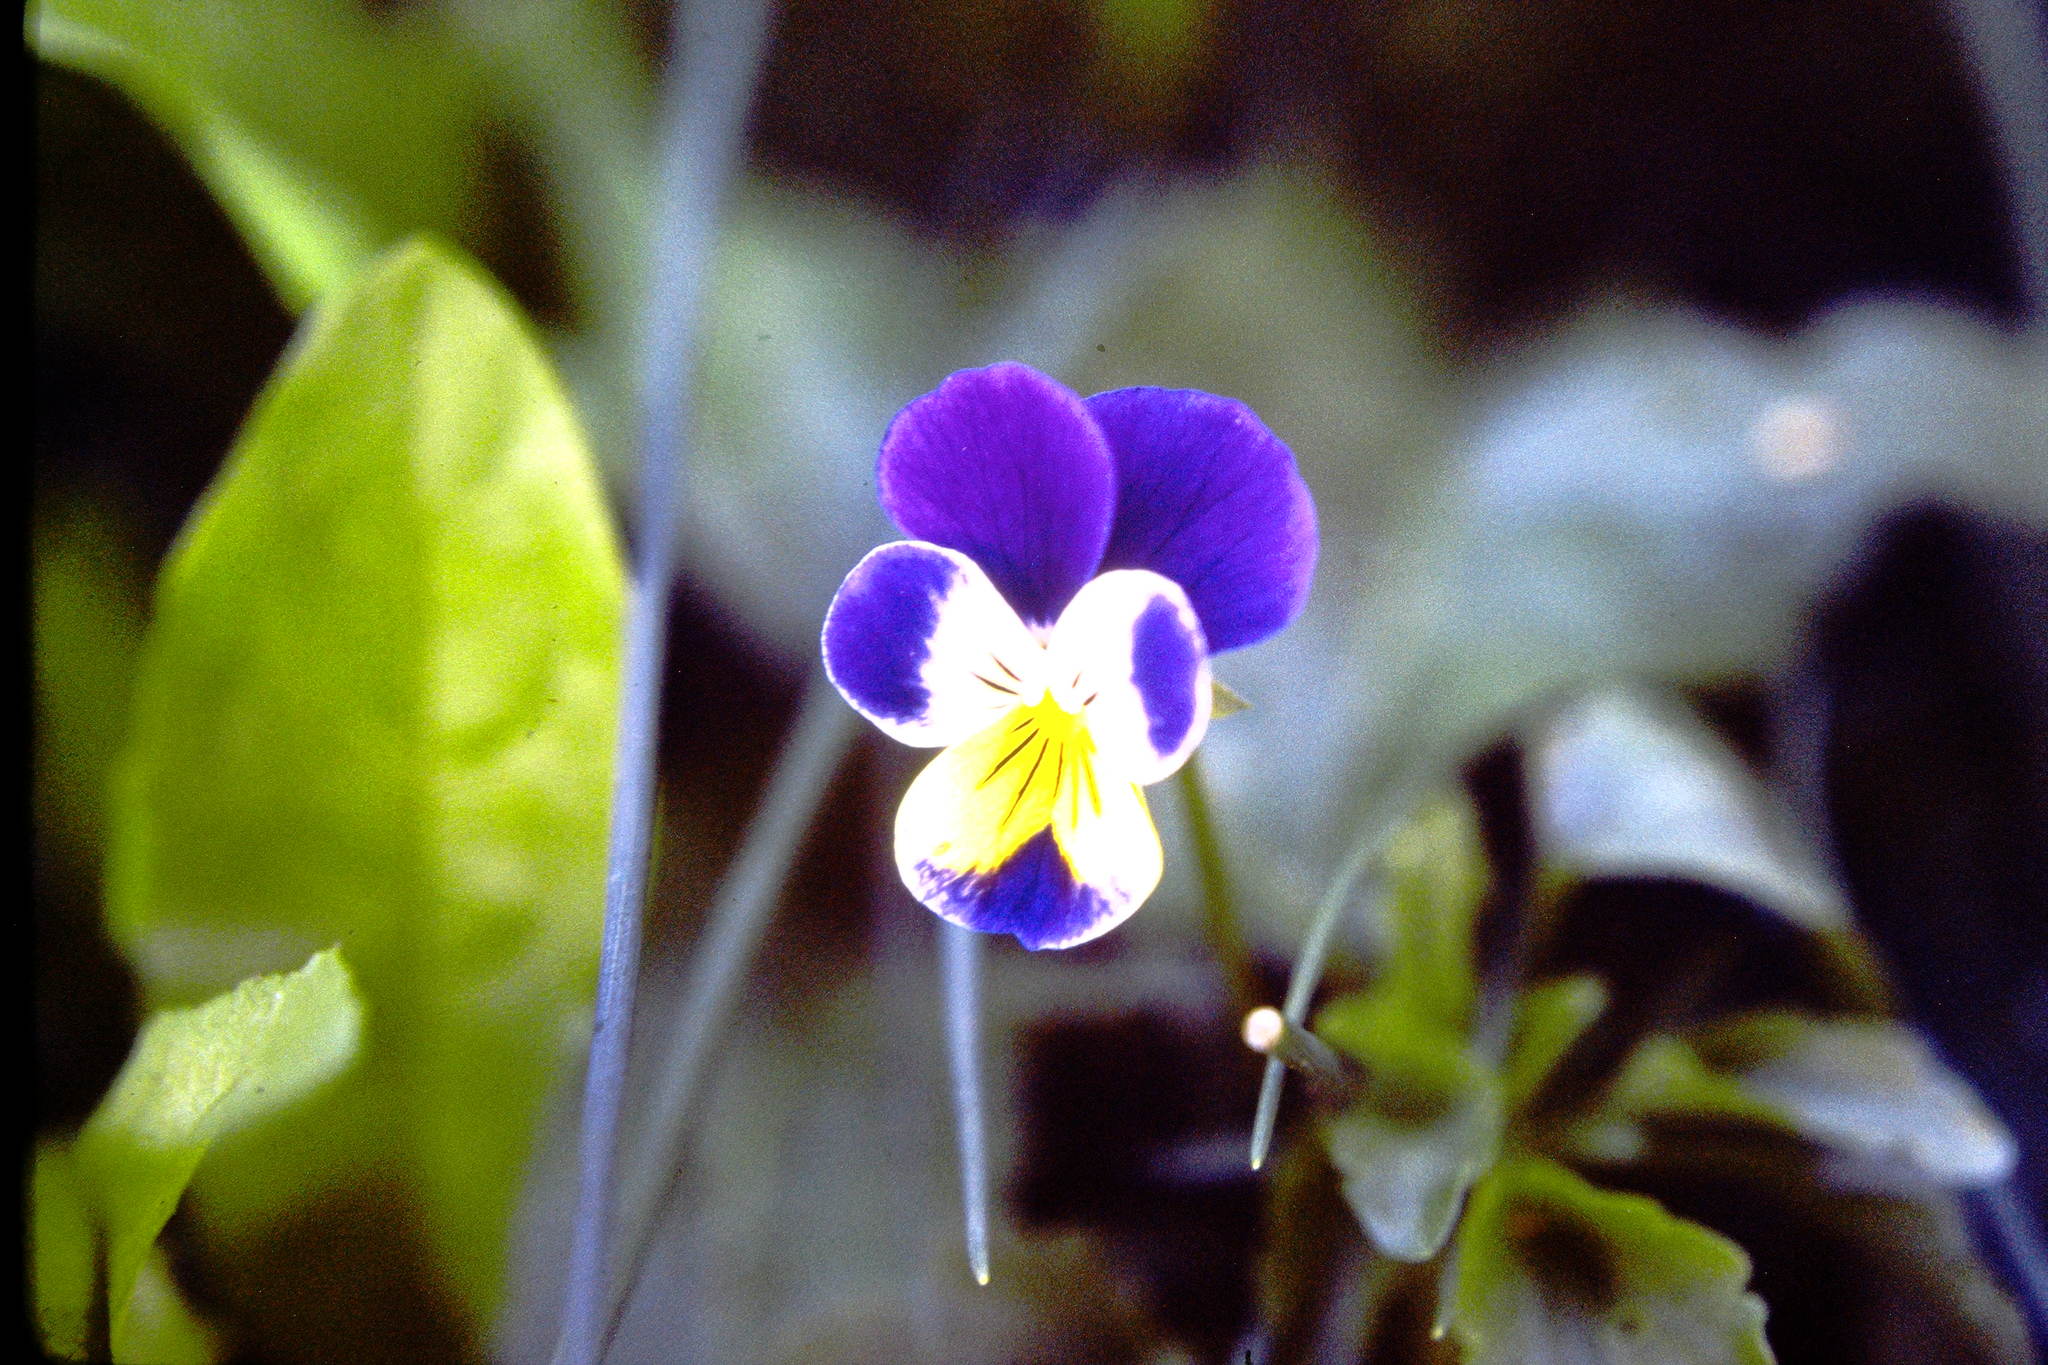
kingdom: Plantae
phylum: Tracheophyta
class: Magnoliopsida
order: Malpighiales
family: Violaceae
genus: Viola
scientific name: Viola williamsii
